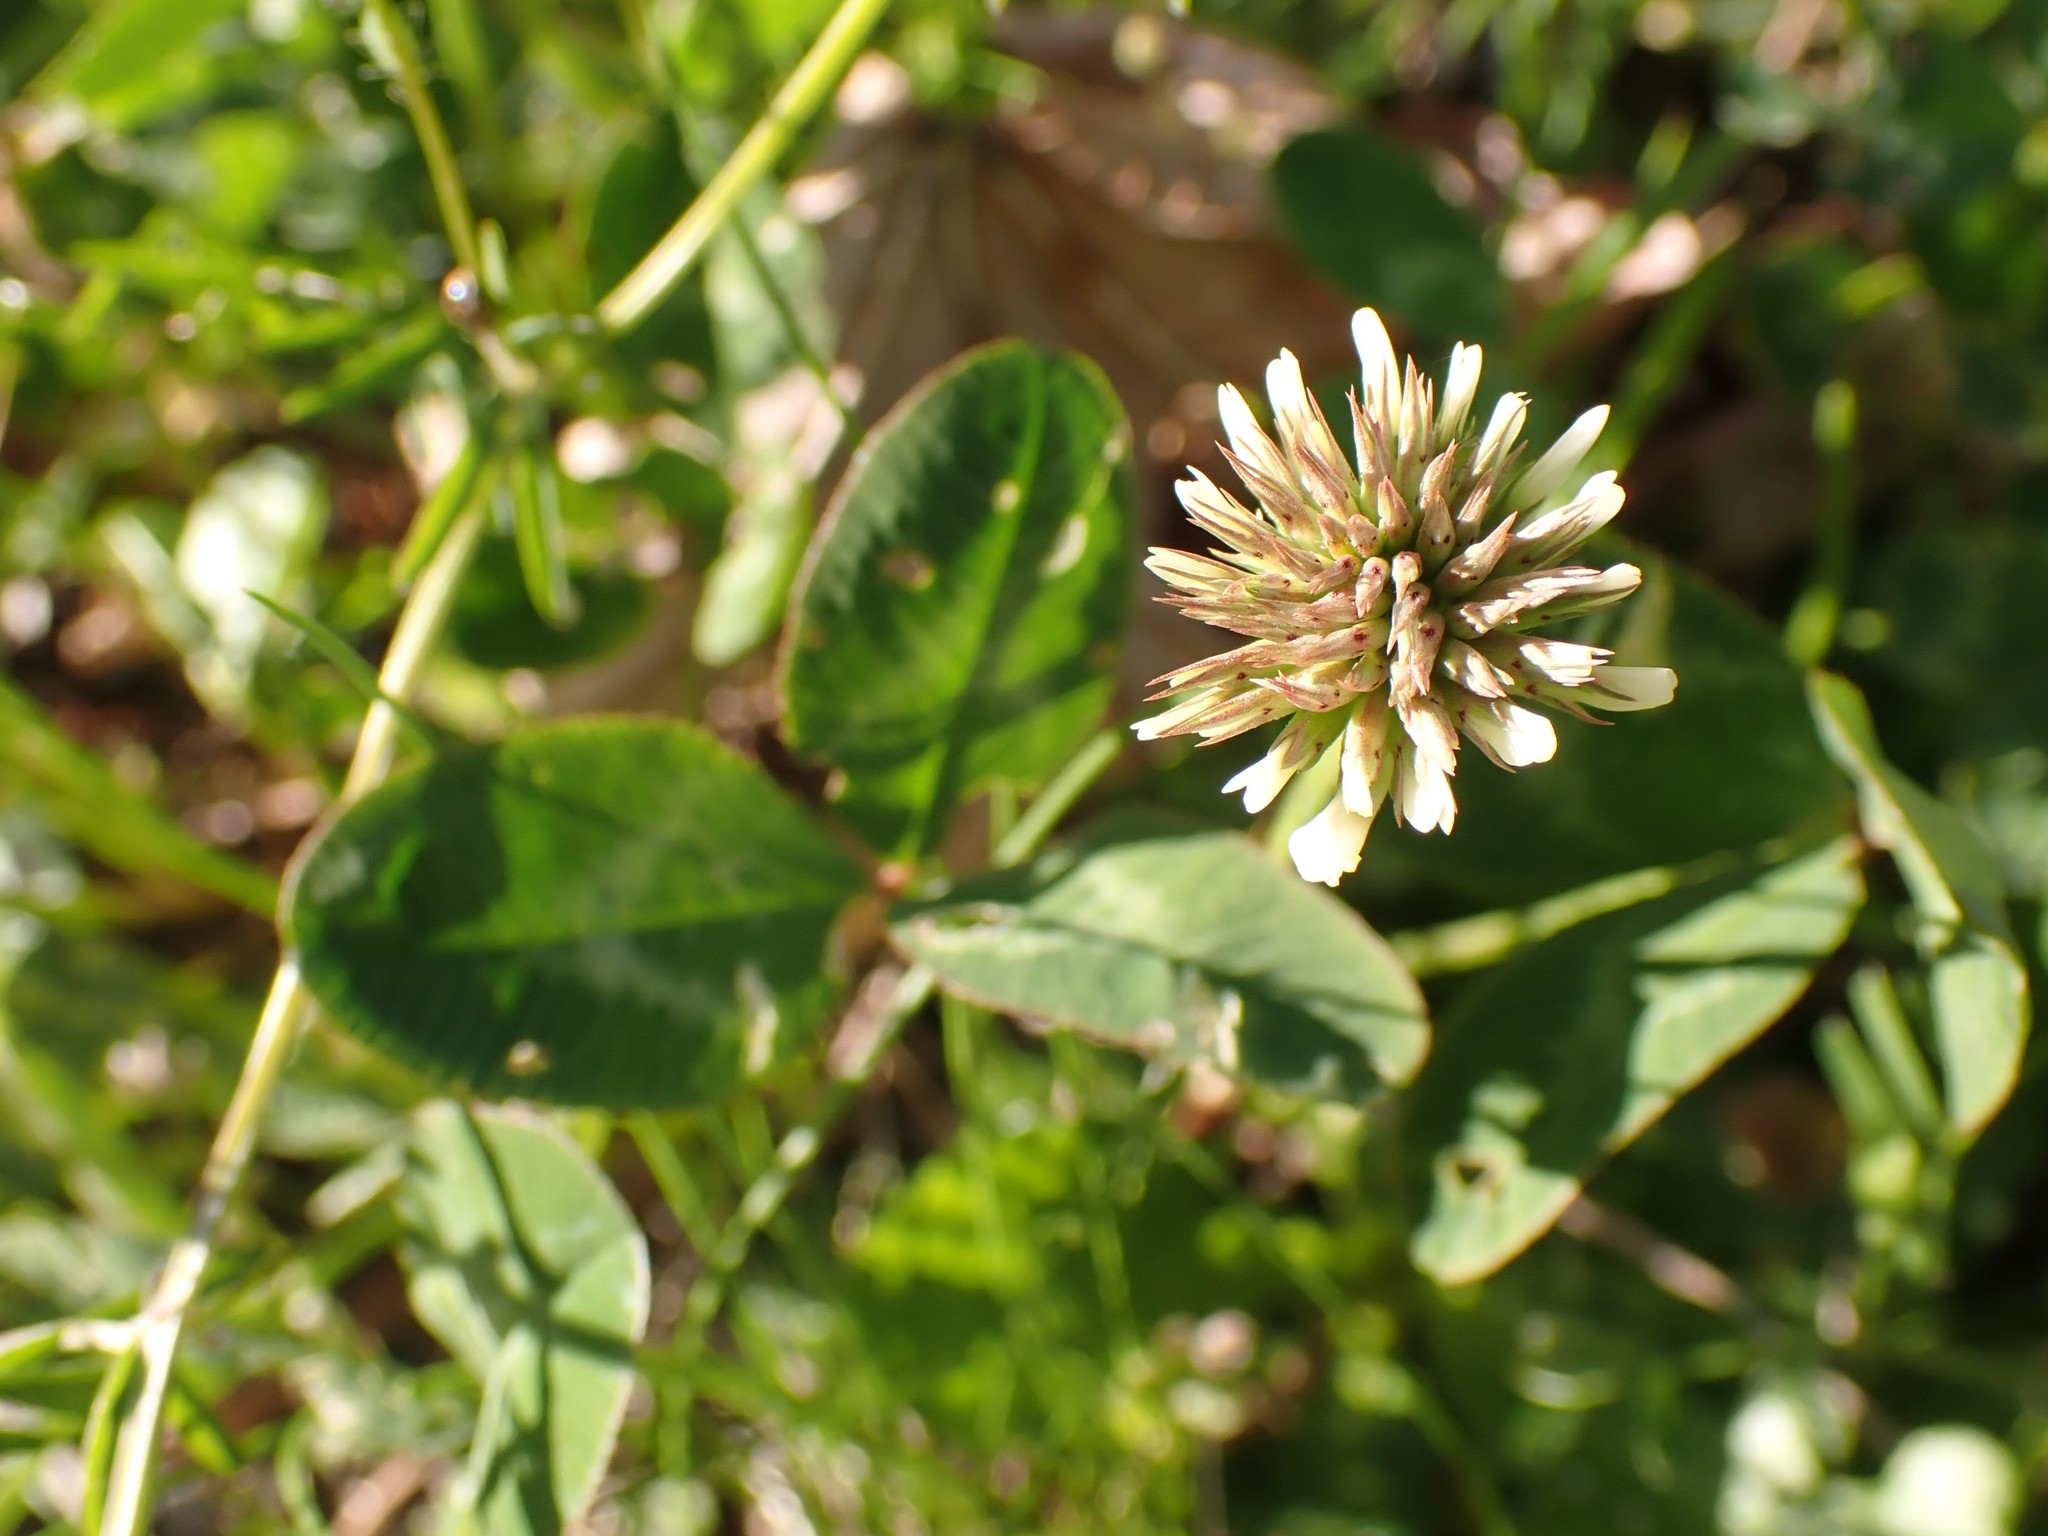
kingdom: Plantae
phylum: Tracheophyta
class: Magnoliopsida
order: Fabales
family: Fabaceae
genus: Trifolium
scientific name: Trifolium repens
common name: White clover
